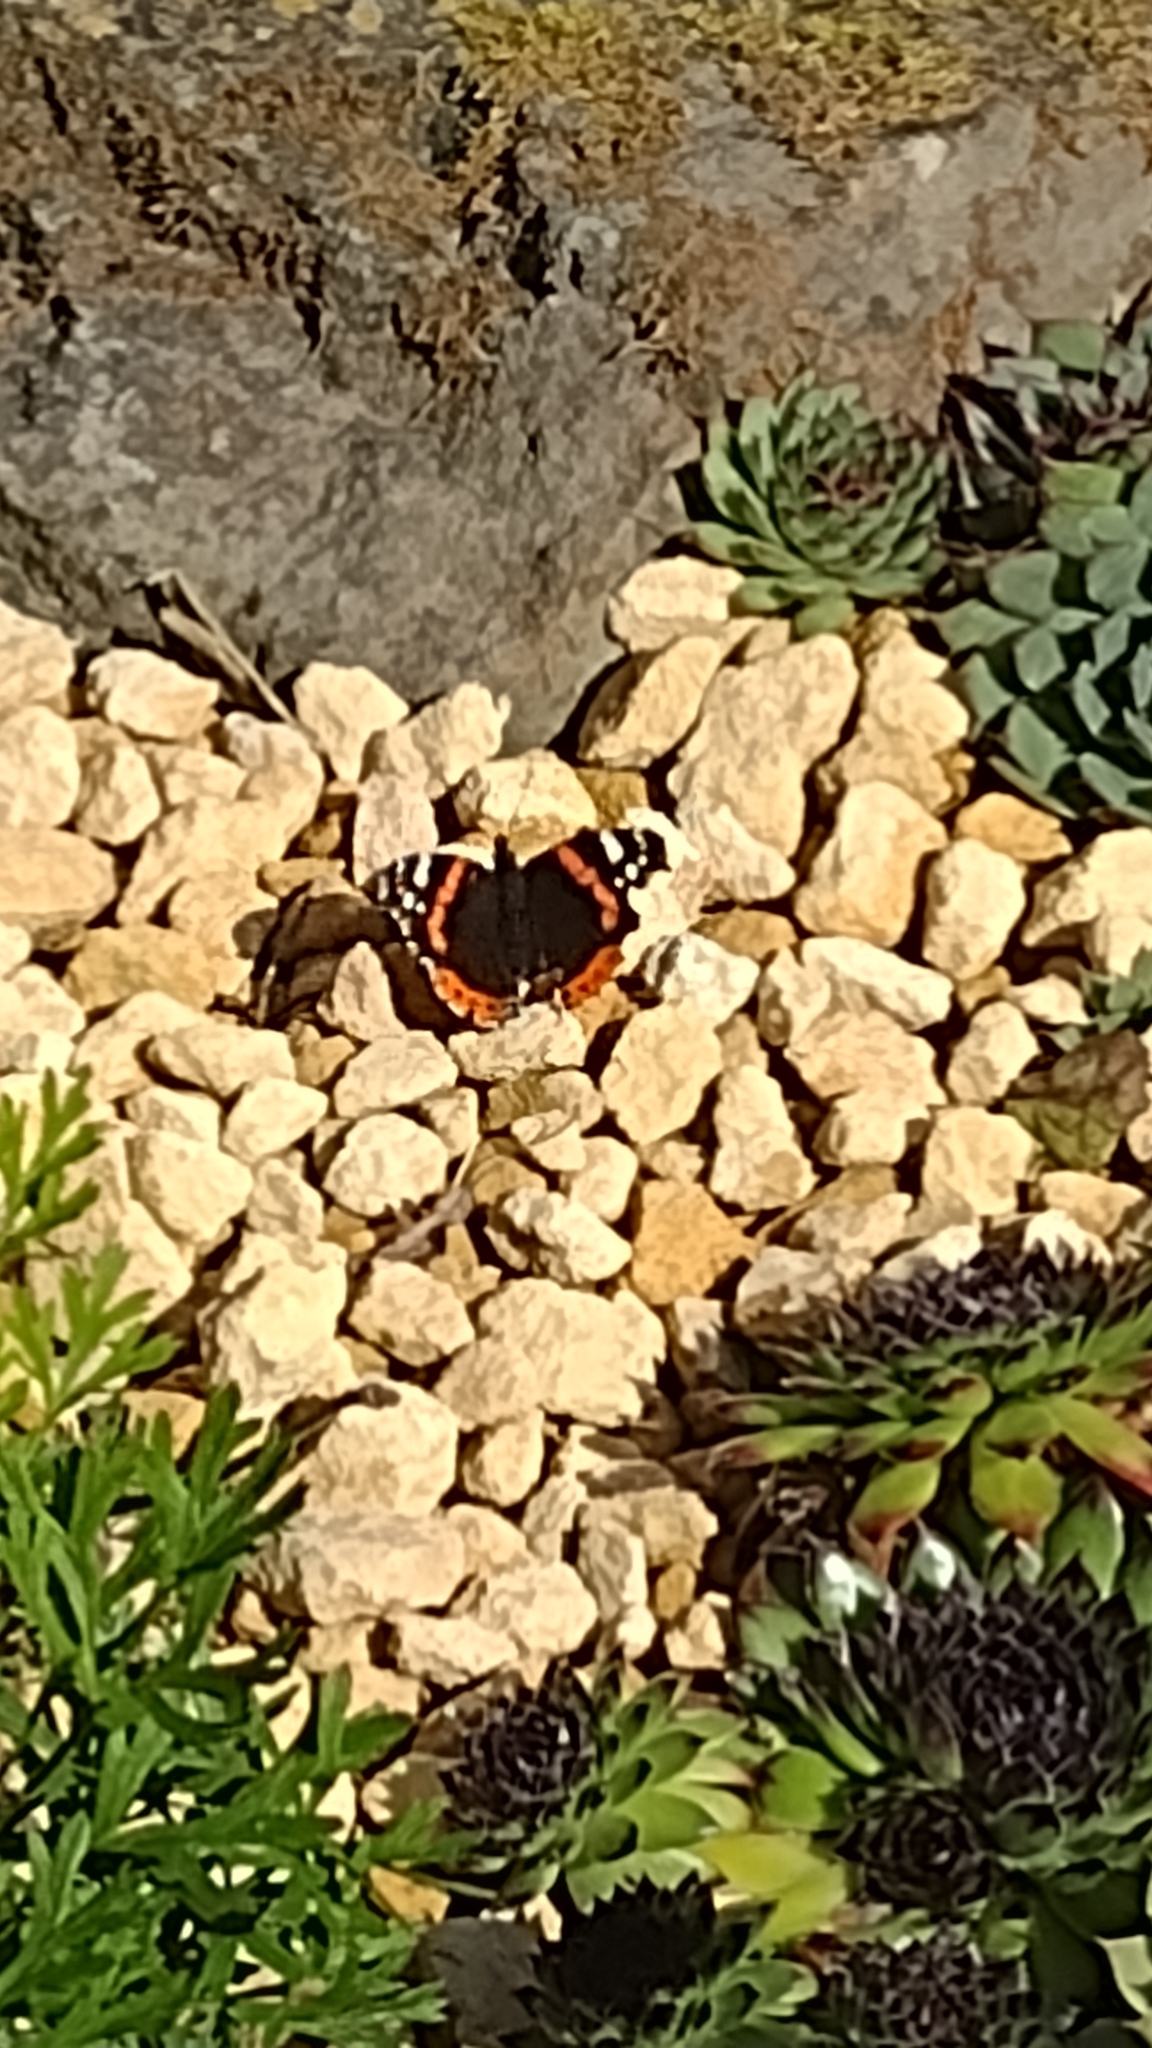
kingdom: Animalia
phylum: Arthropoda
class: Insecta
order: Lepidoptera
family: Nymphalidae
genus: Vanessa
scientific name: Vanessa atalanta
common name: Red admiral
